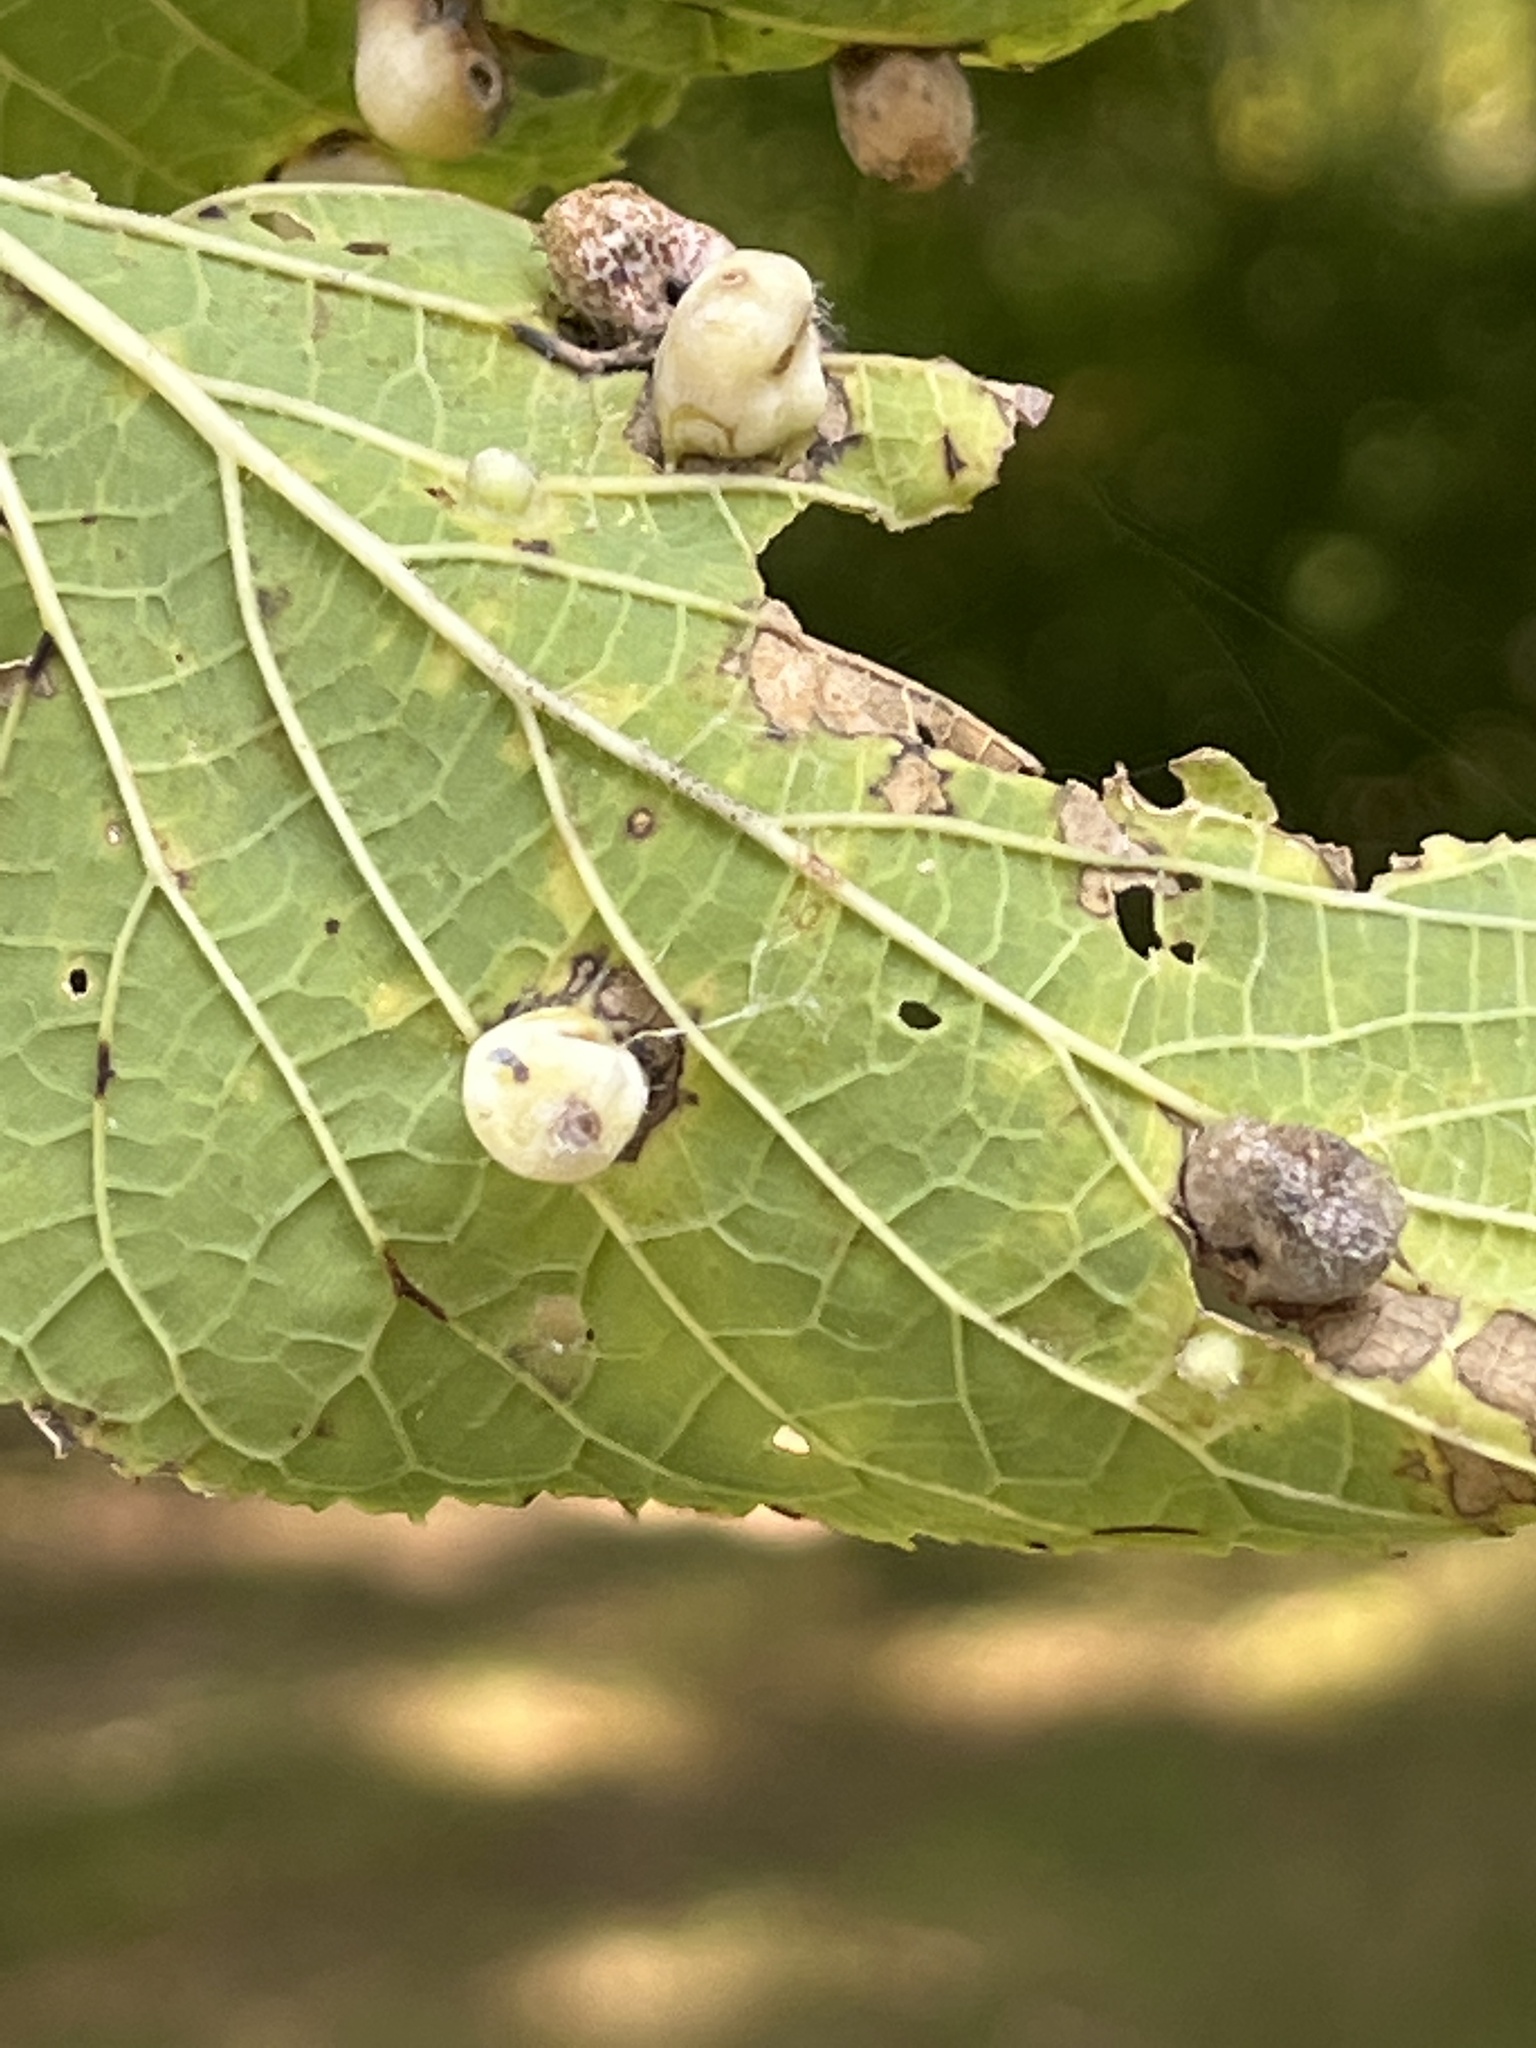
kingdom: Animalia
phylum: Arthropoda
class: Insecta
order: Hemiptera
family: Aphalaridae
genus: Pachypsylla
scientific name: Pachypsylla celtidismamma
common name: Hackberry nipplegall psyllid
